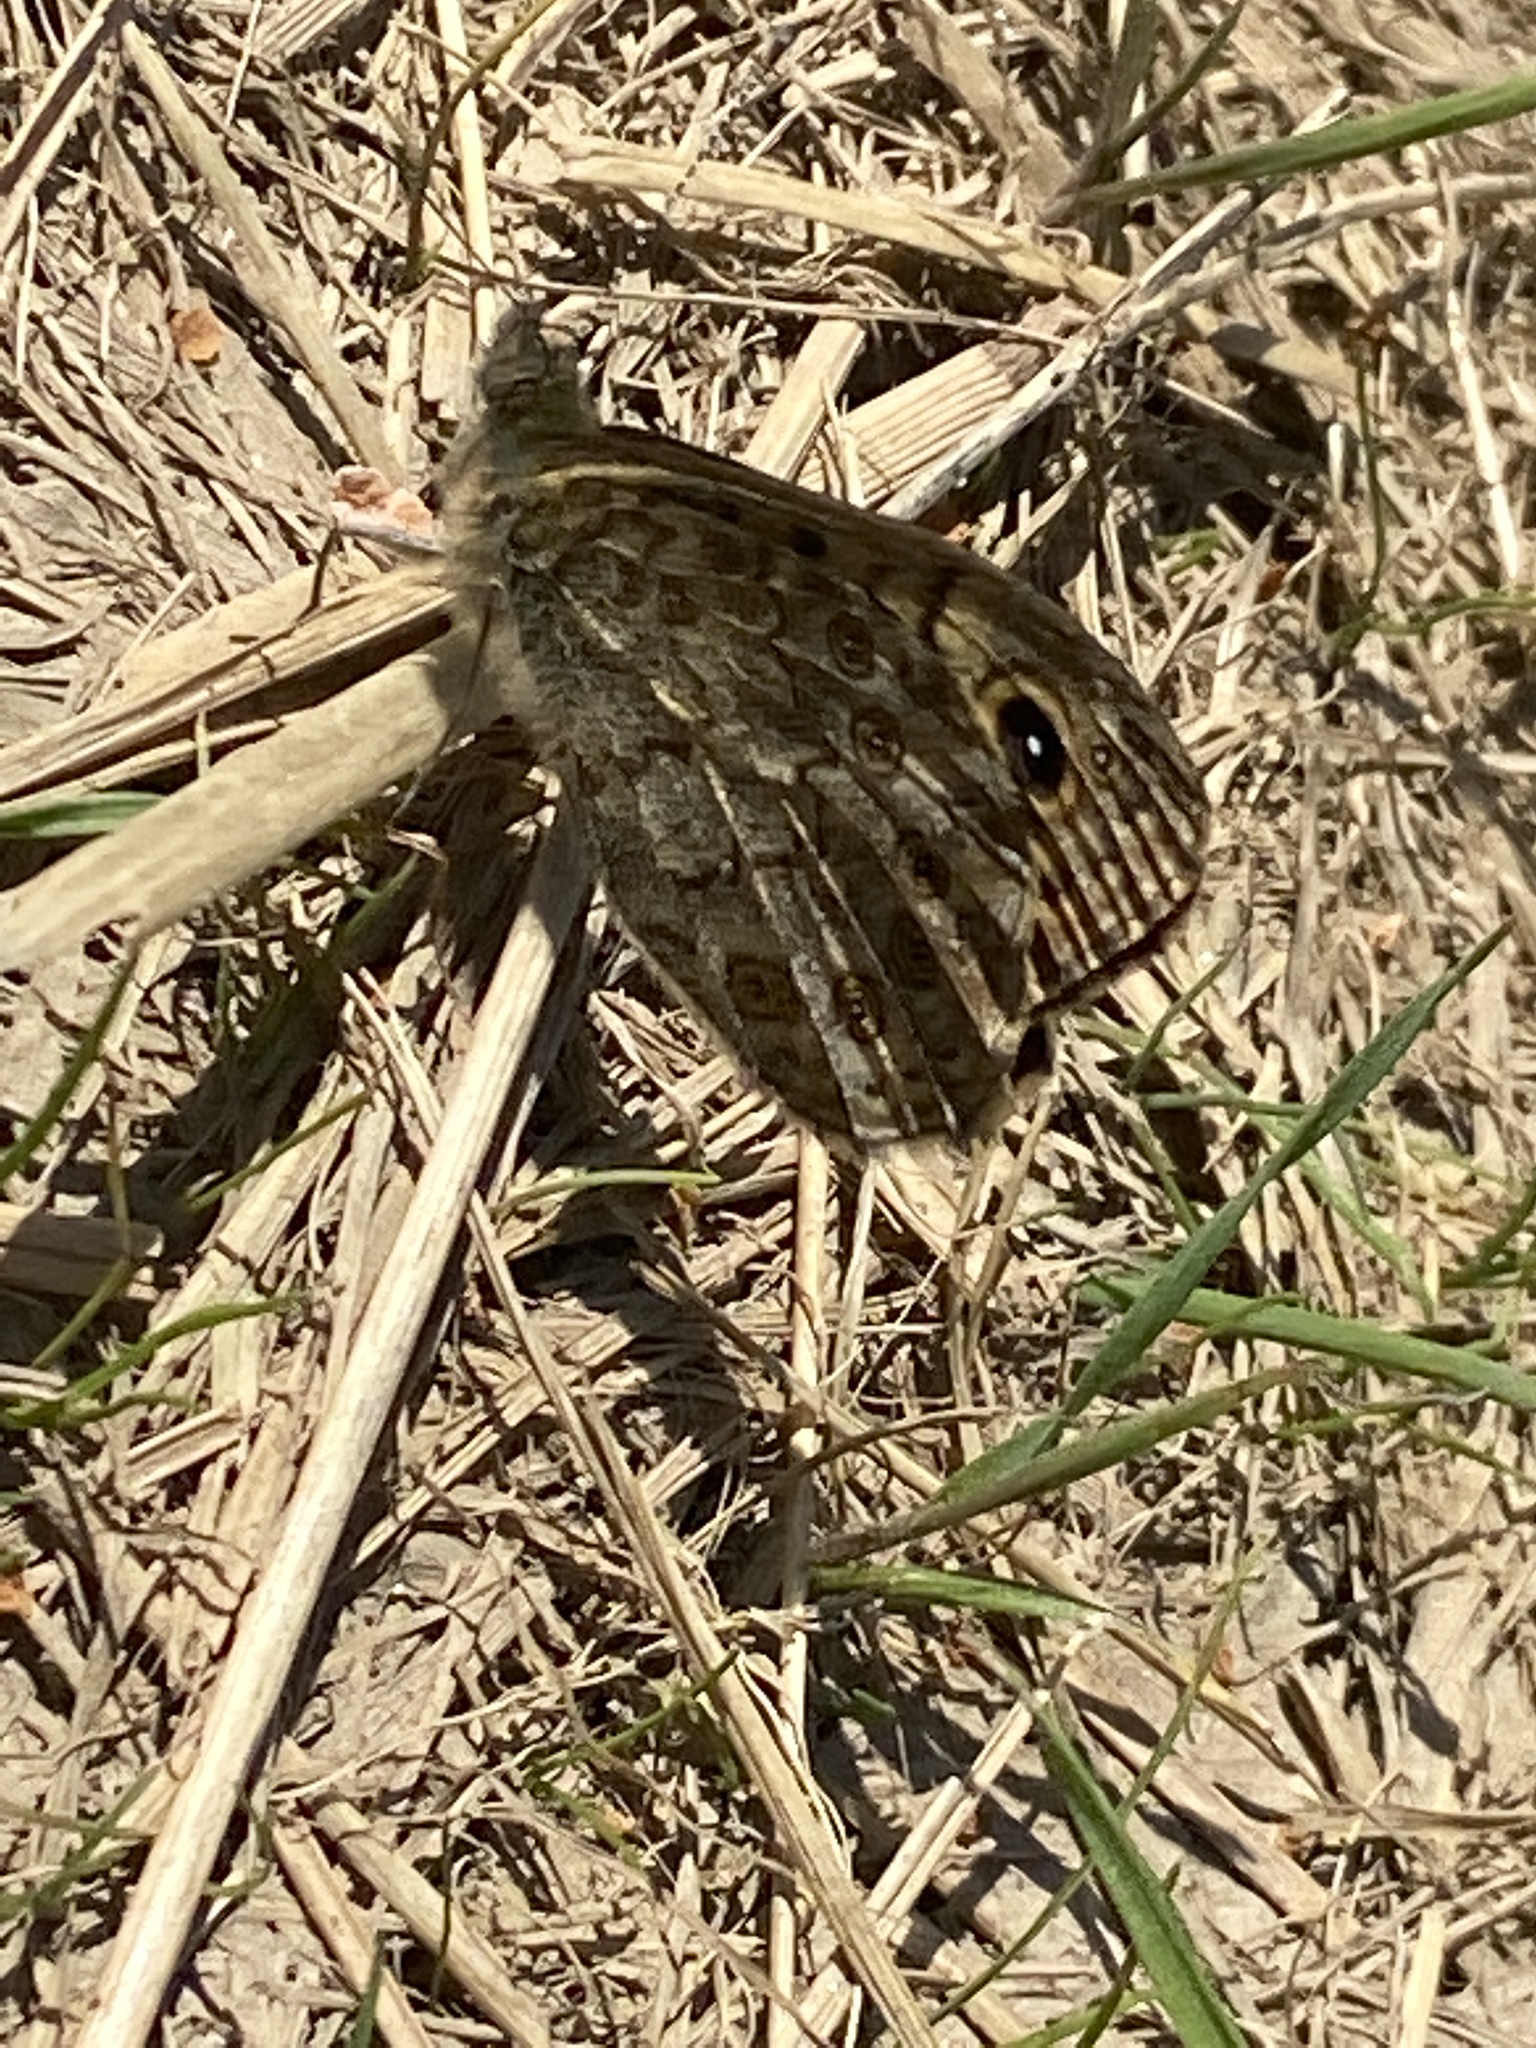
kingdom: Animalia
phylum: Arthropoda
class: Insecta
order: Lepidoptera
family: Nymphalidae
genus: Pararge
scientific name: Pararge Lasiommata megera
